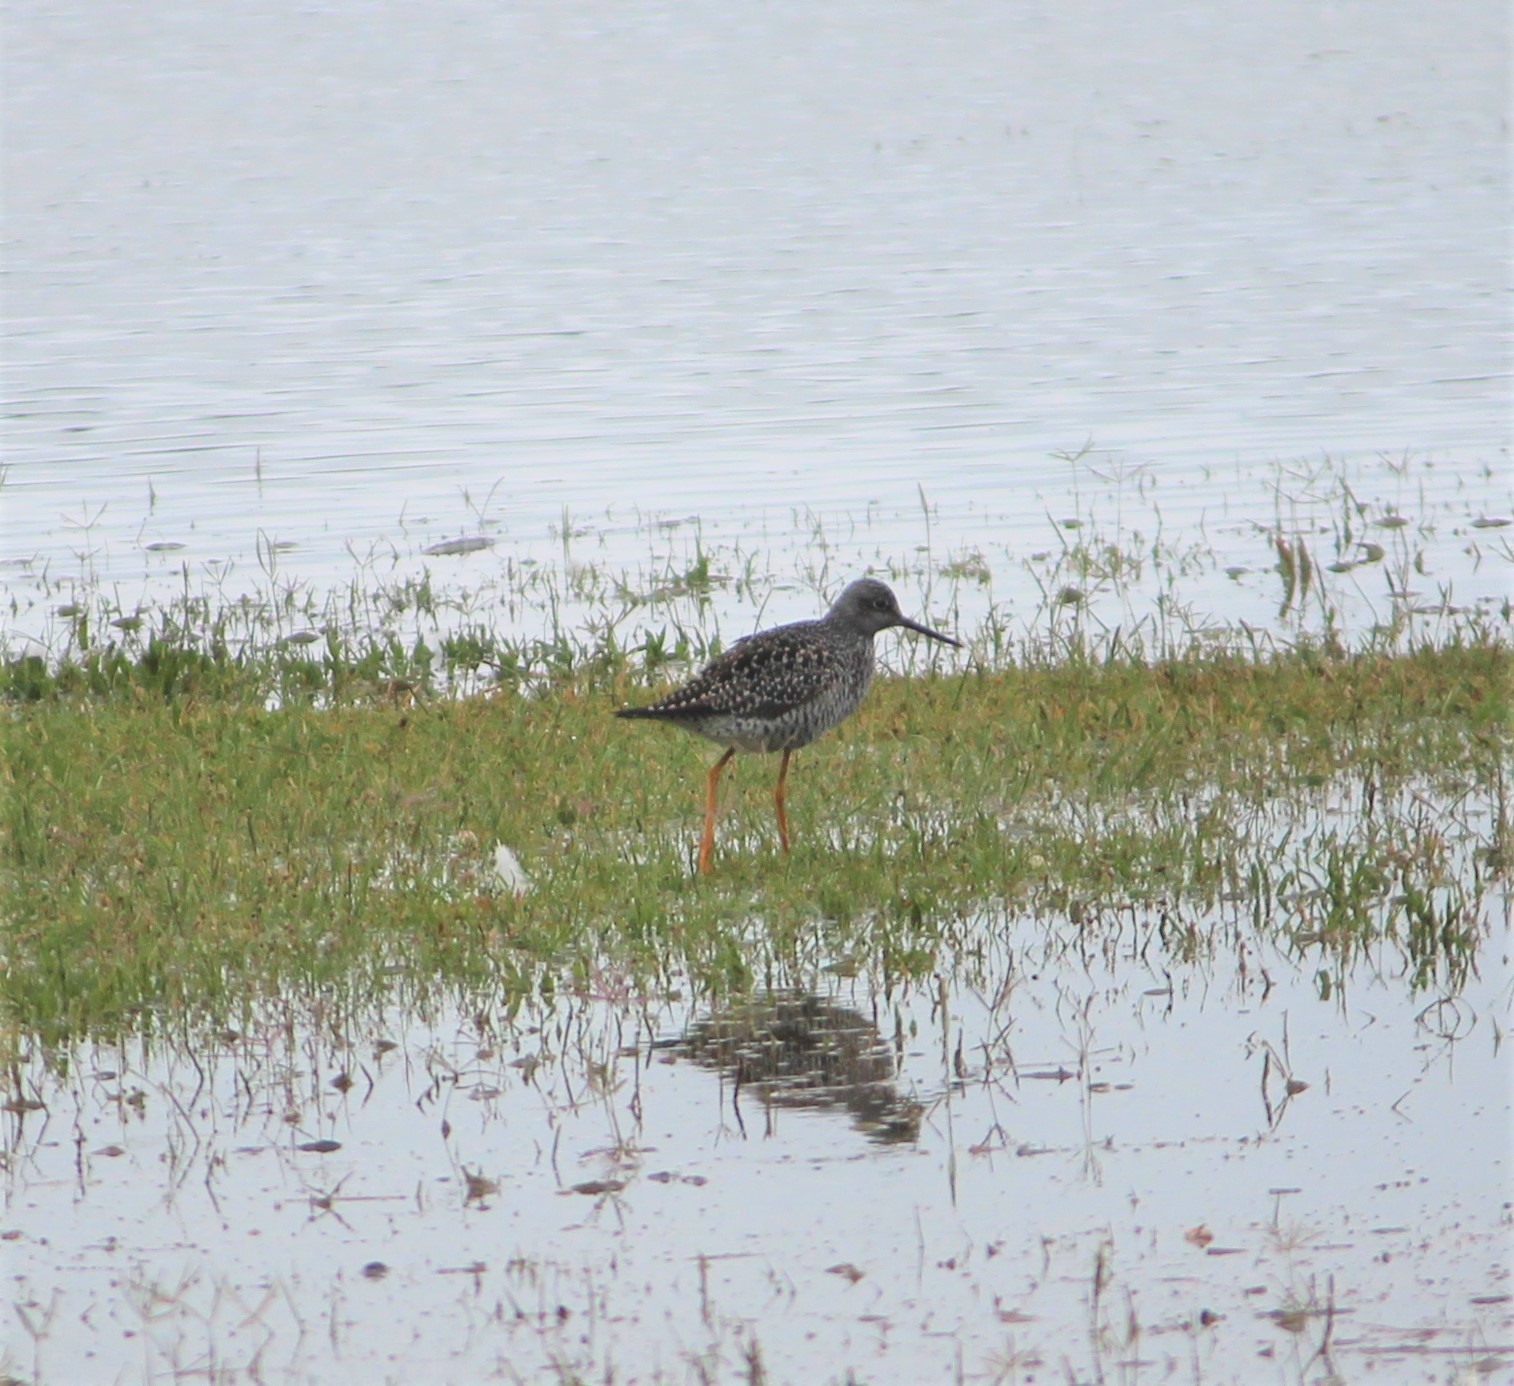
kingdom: Animalia
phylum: Chordata
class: Aves
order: Charadriiformes
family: Scolopacidae
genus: Tringa
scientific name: Tringa melanoleuca
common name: Greater yellowlegs
